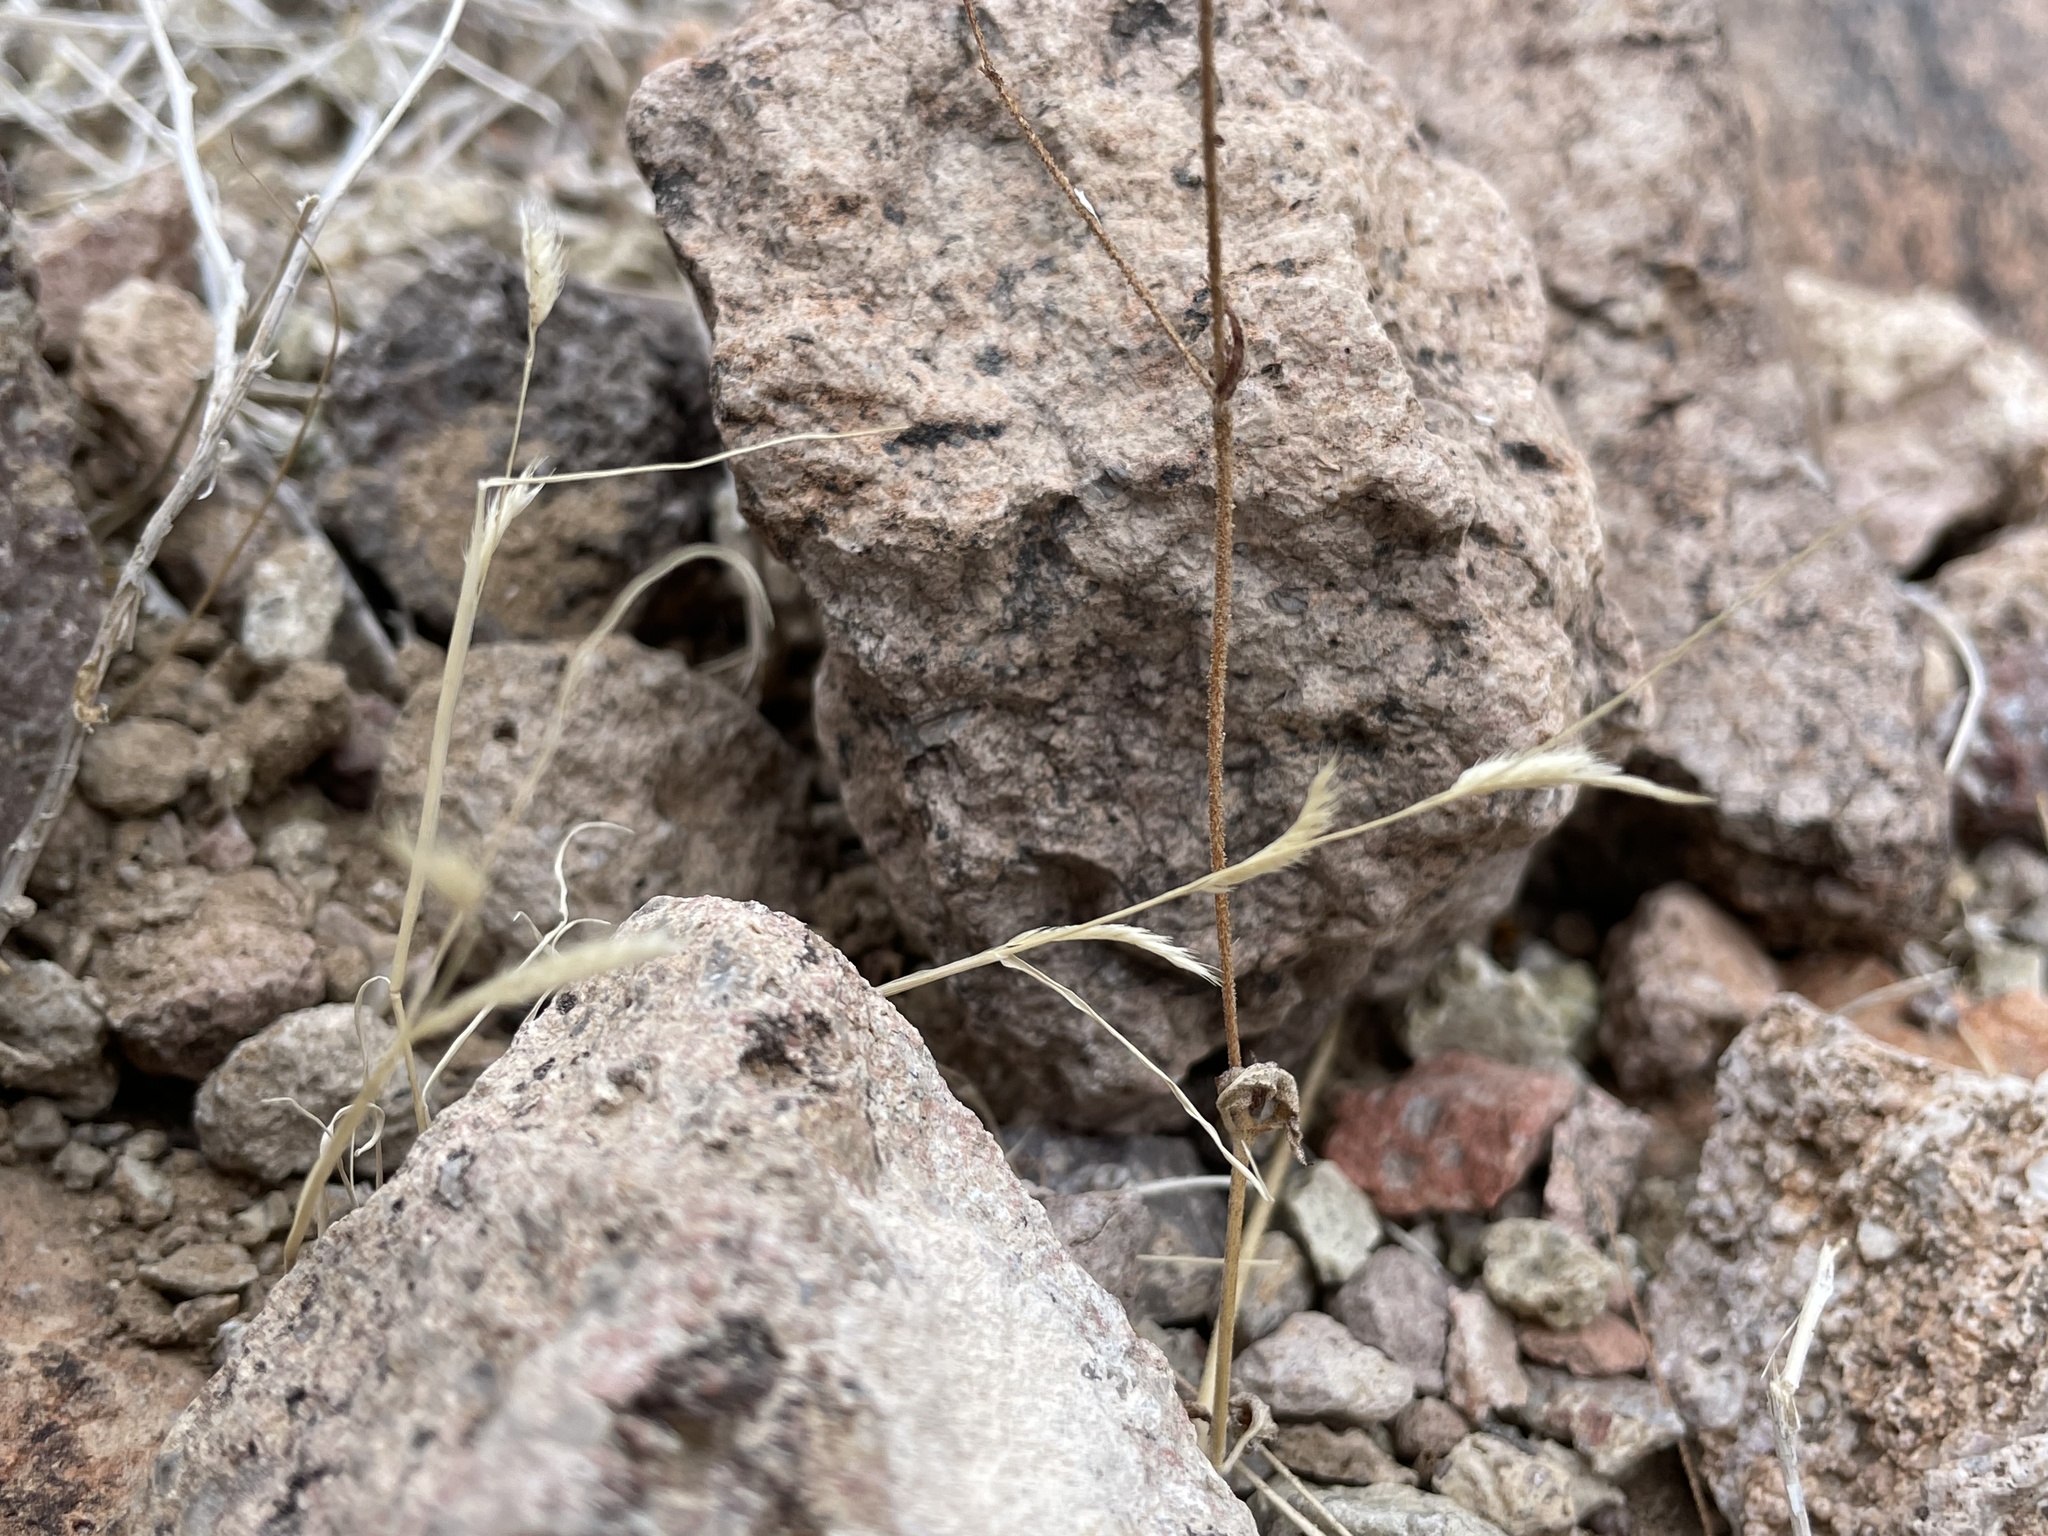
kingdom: Plantae
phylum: Tracheophyta
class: Liliopsida
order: Poales
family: Poaceae
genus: Bouteloua
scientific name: Bouteloua barbata
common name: Six-weeks grama
